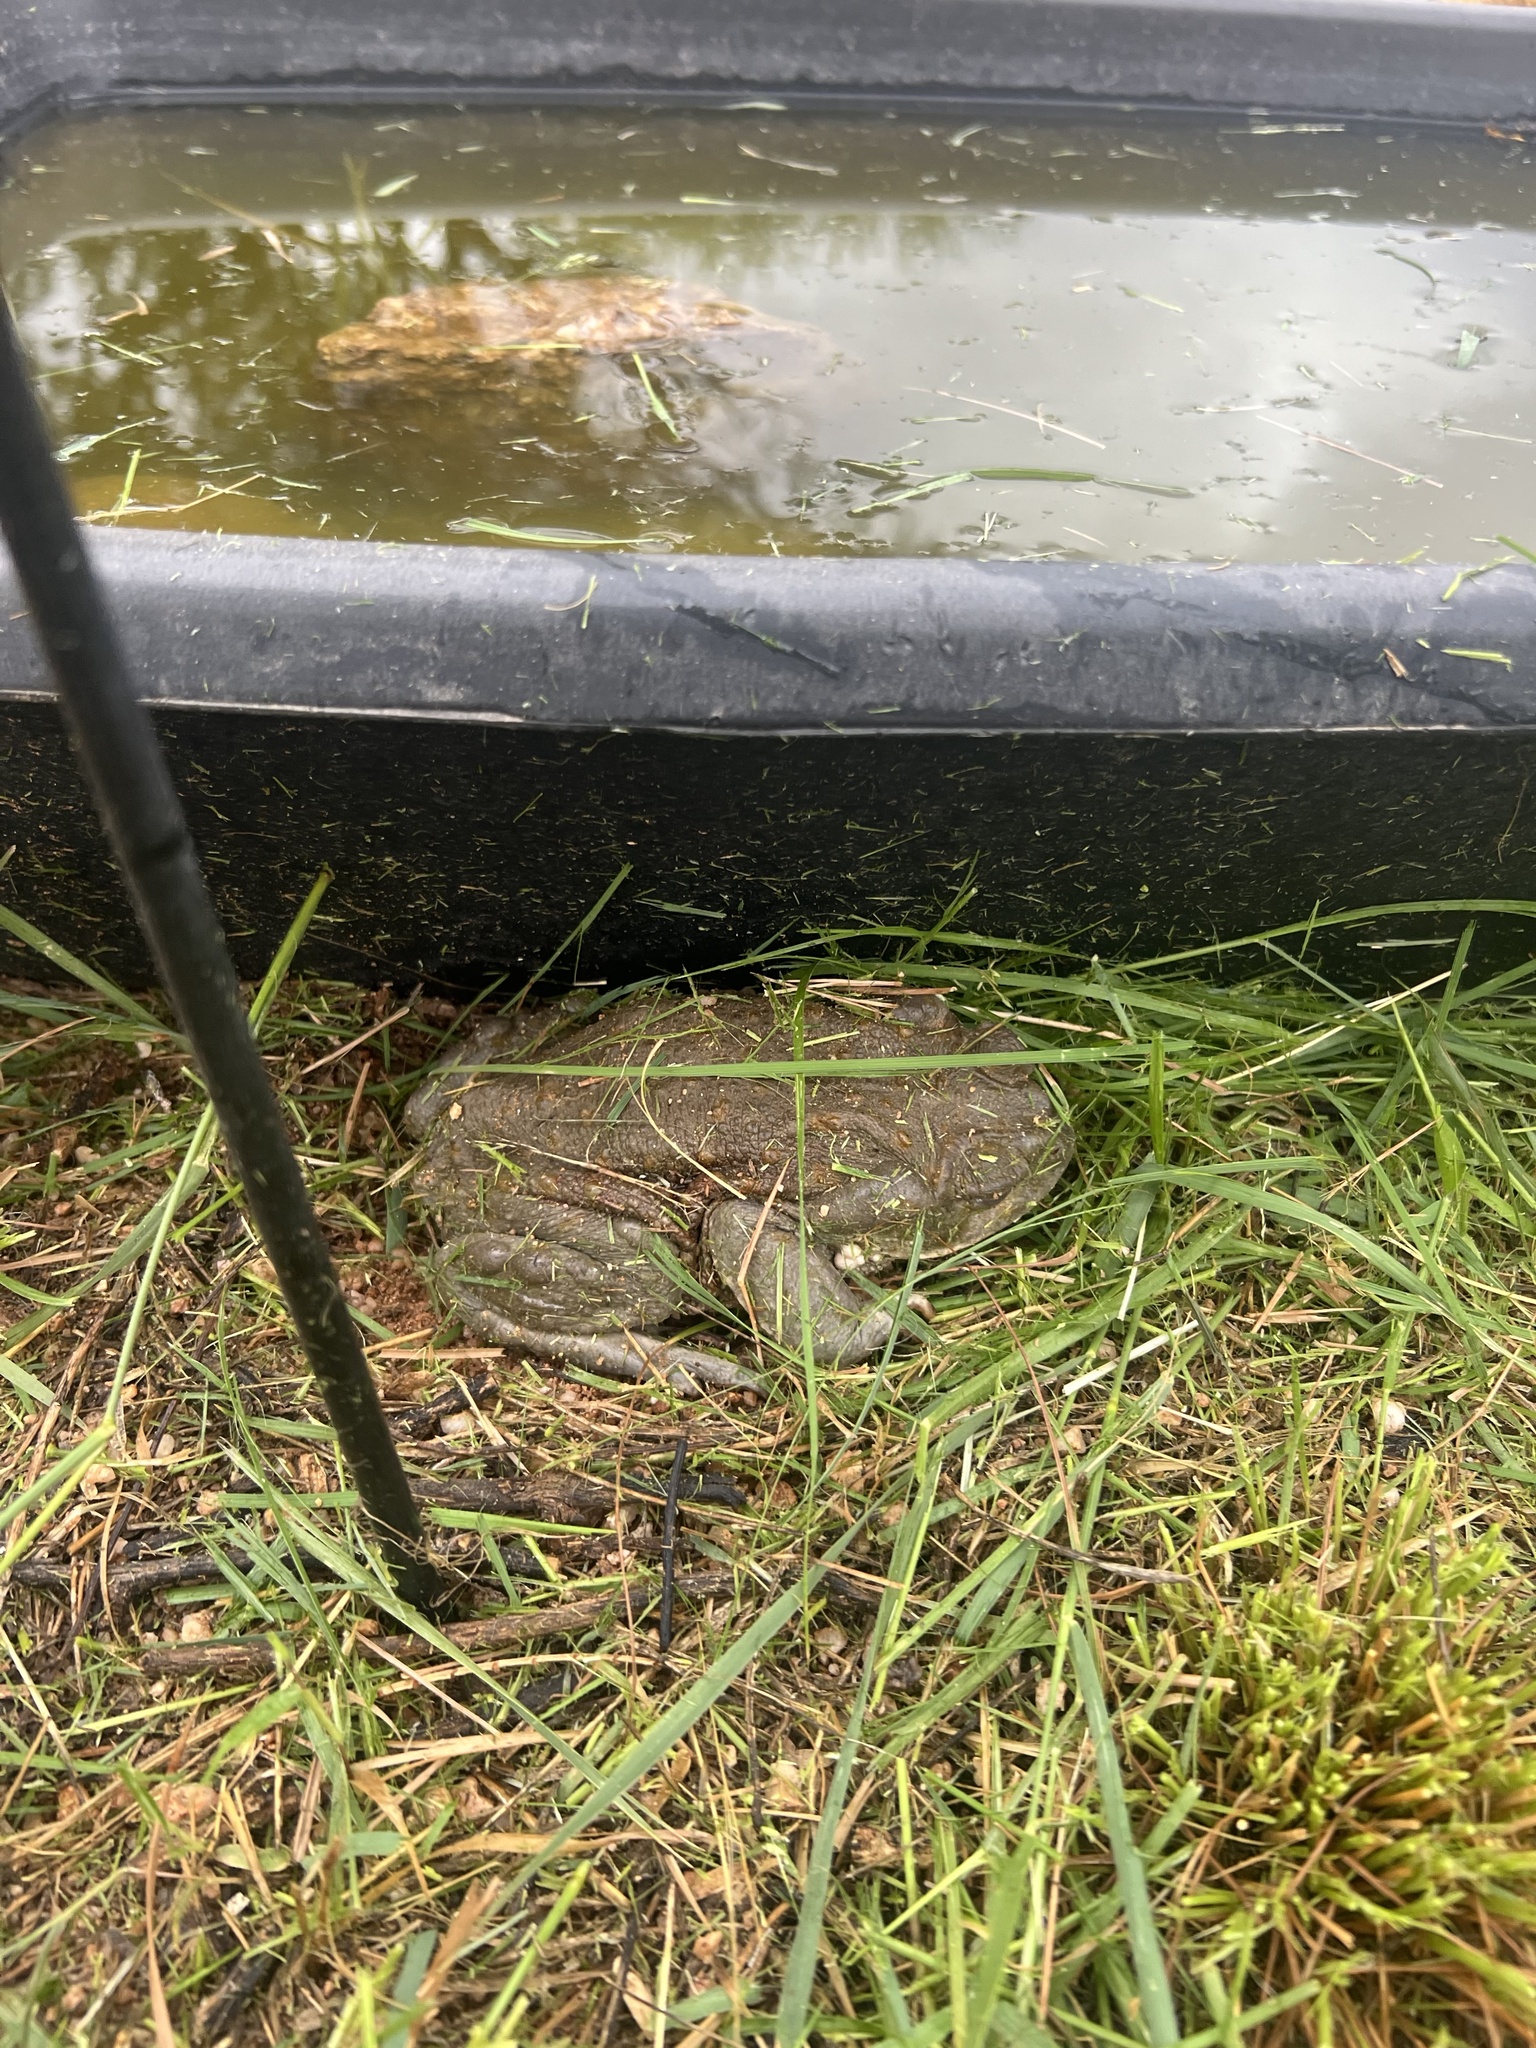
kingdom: Animalia
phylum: Chordata
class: Amphibia
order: Anura
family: Bufonidae
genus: Incilius
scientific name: Incilius alvarius
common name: Sonoran desert toad
